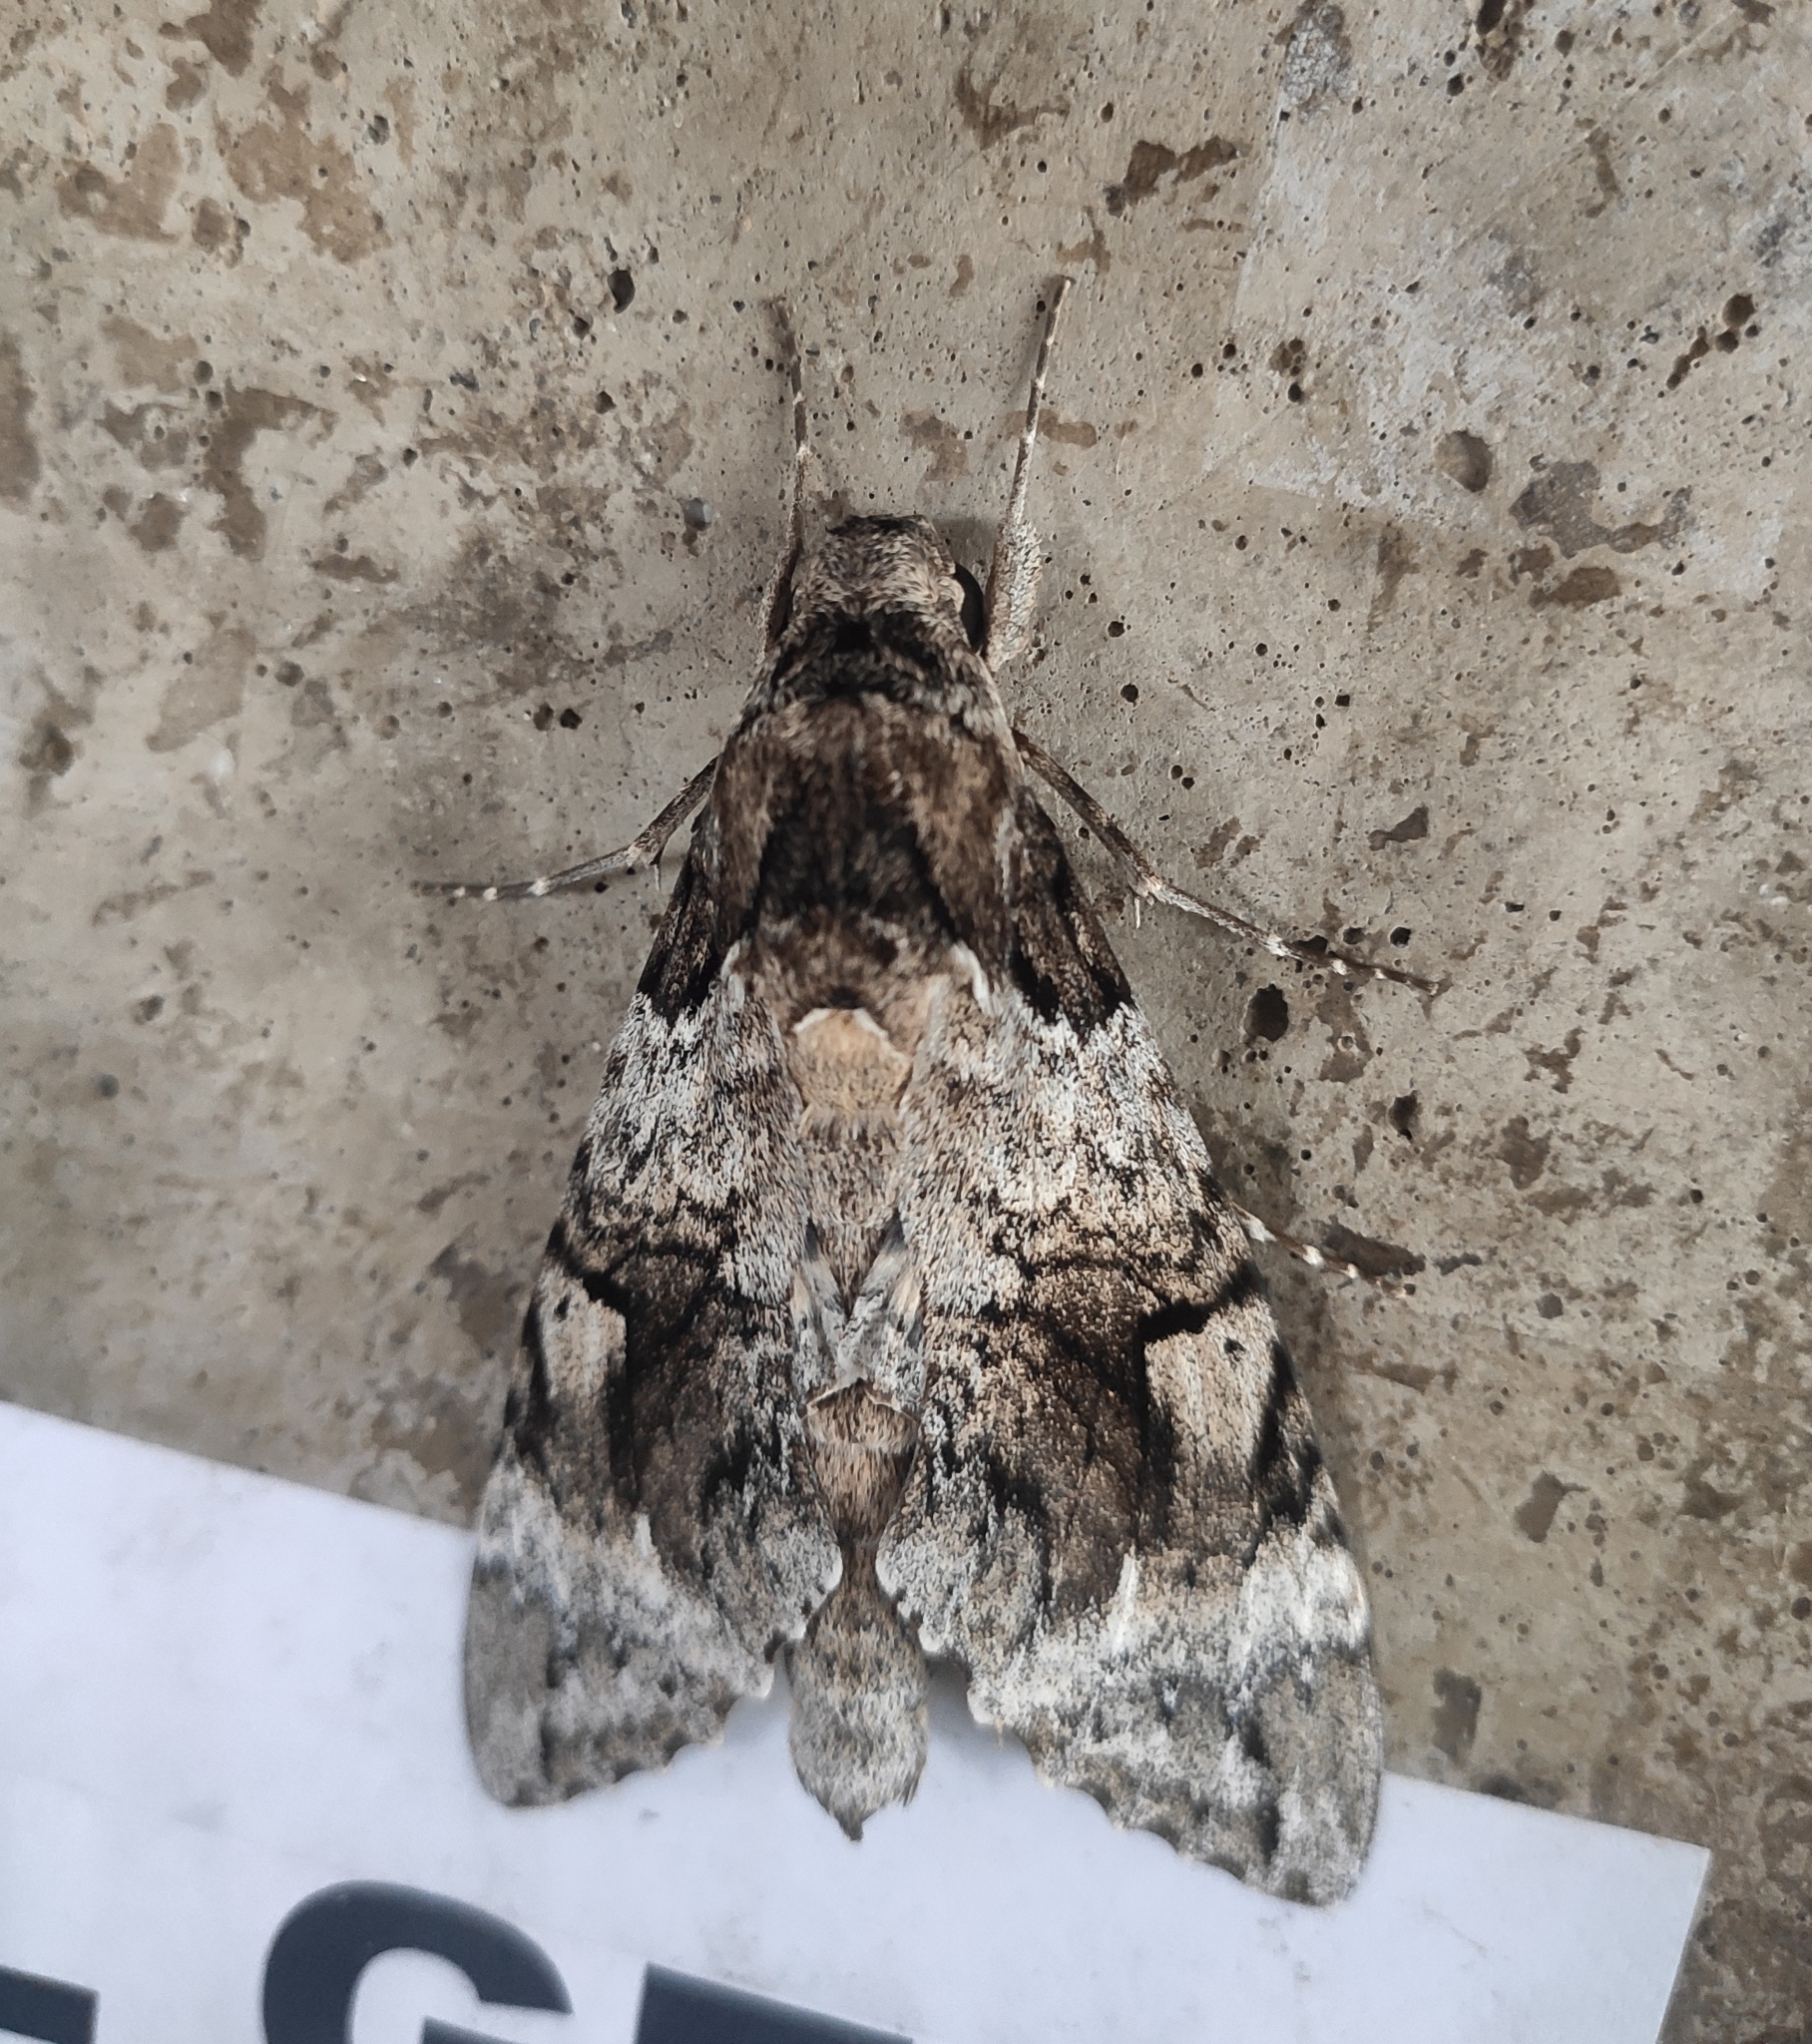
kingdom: Animalia
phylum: Arthropoda
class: Insecta
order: Lepidoptera
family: Sphingidae
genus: Pseudosphinx
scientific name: Pseudosphinx tetrio
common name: Tetrio sphinx
